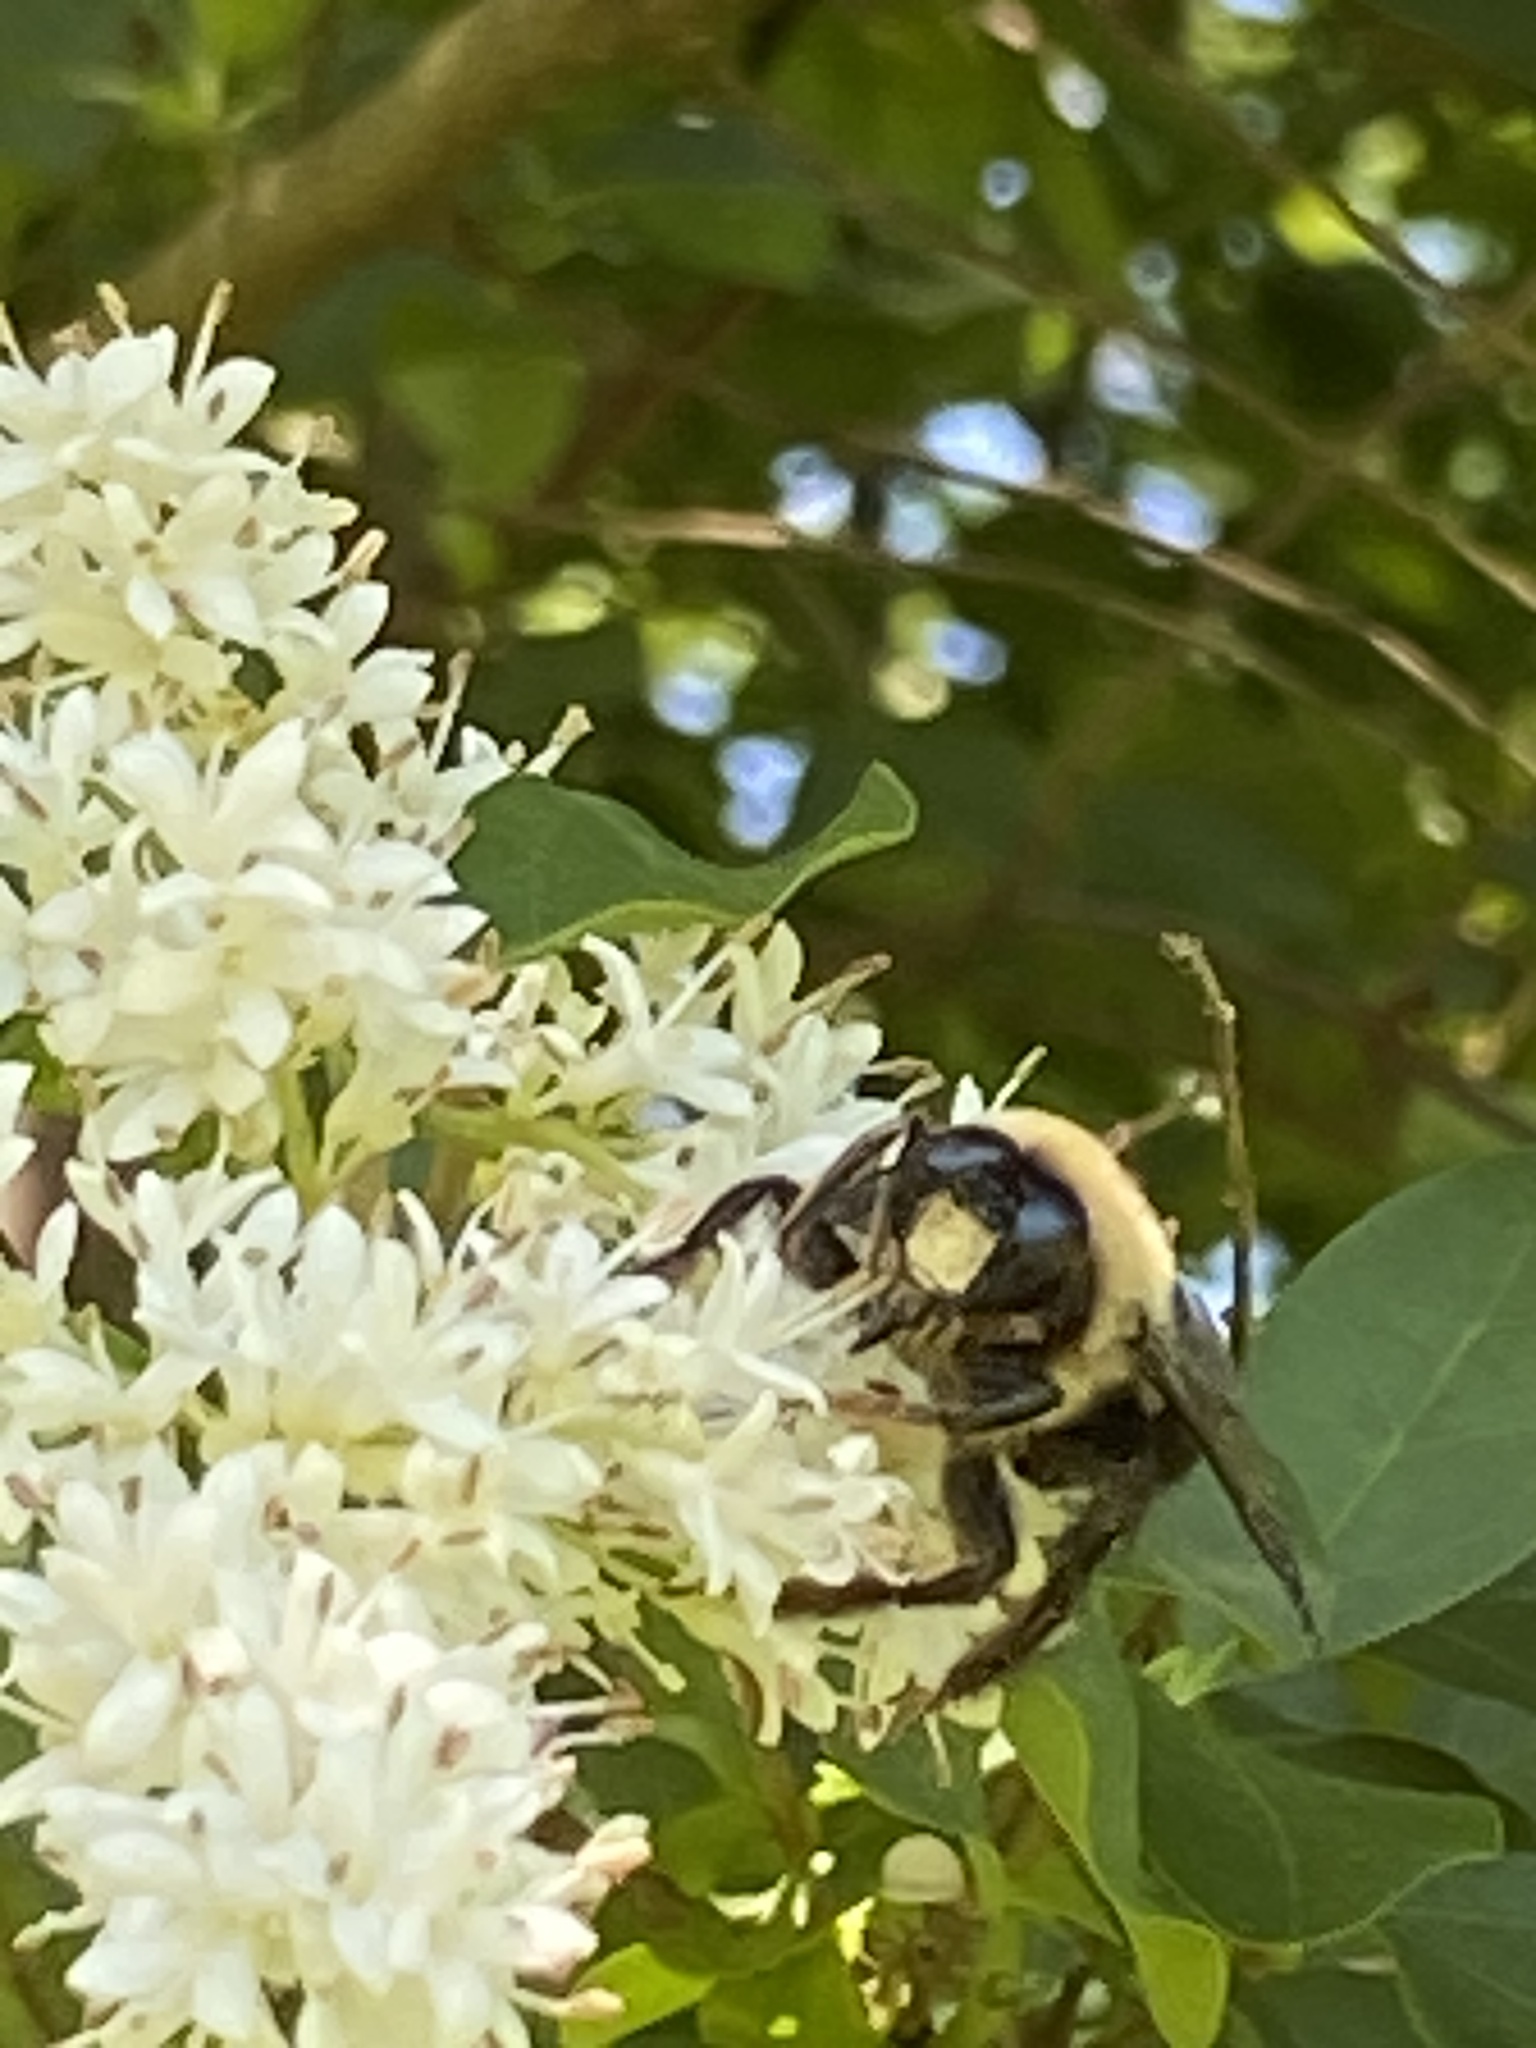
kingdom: Animalia
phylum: Arthropoda
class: Insecta
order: Hymenoptera
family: Apidae
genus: Xylocopa
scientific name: Xylocopa virginica
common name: Carpenter bee
